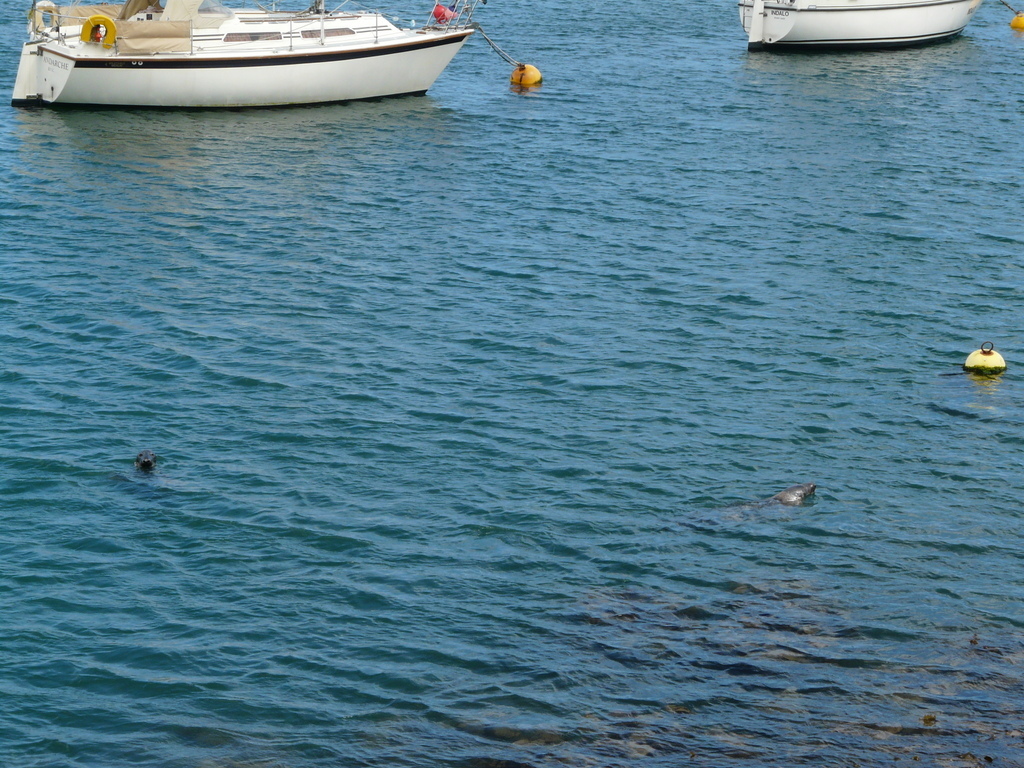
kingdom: Animalia
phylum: Chordata
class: Mammalia
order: Carnivora
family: Phocidae
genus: Halichoerus
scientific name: Halichoerus grypus
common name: Grey seal
